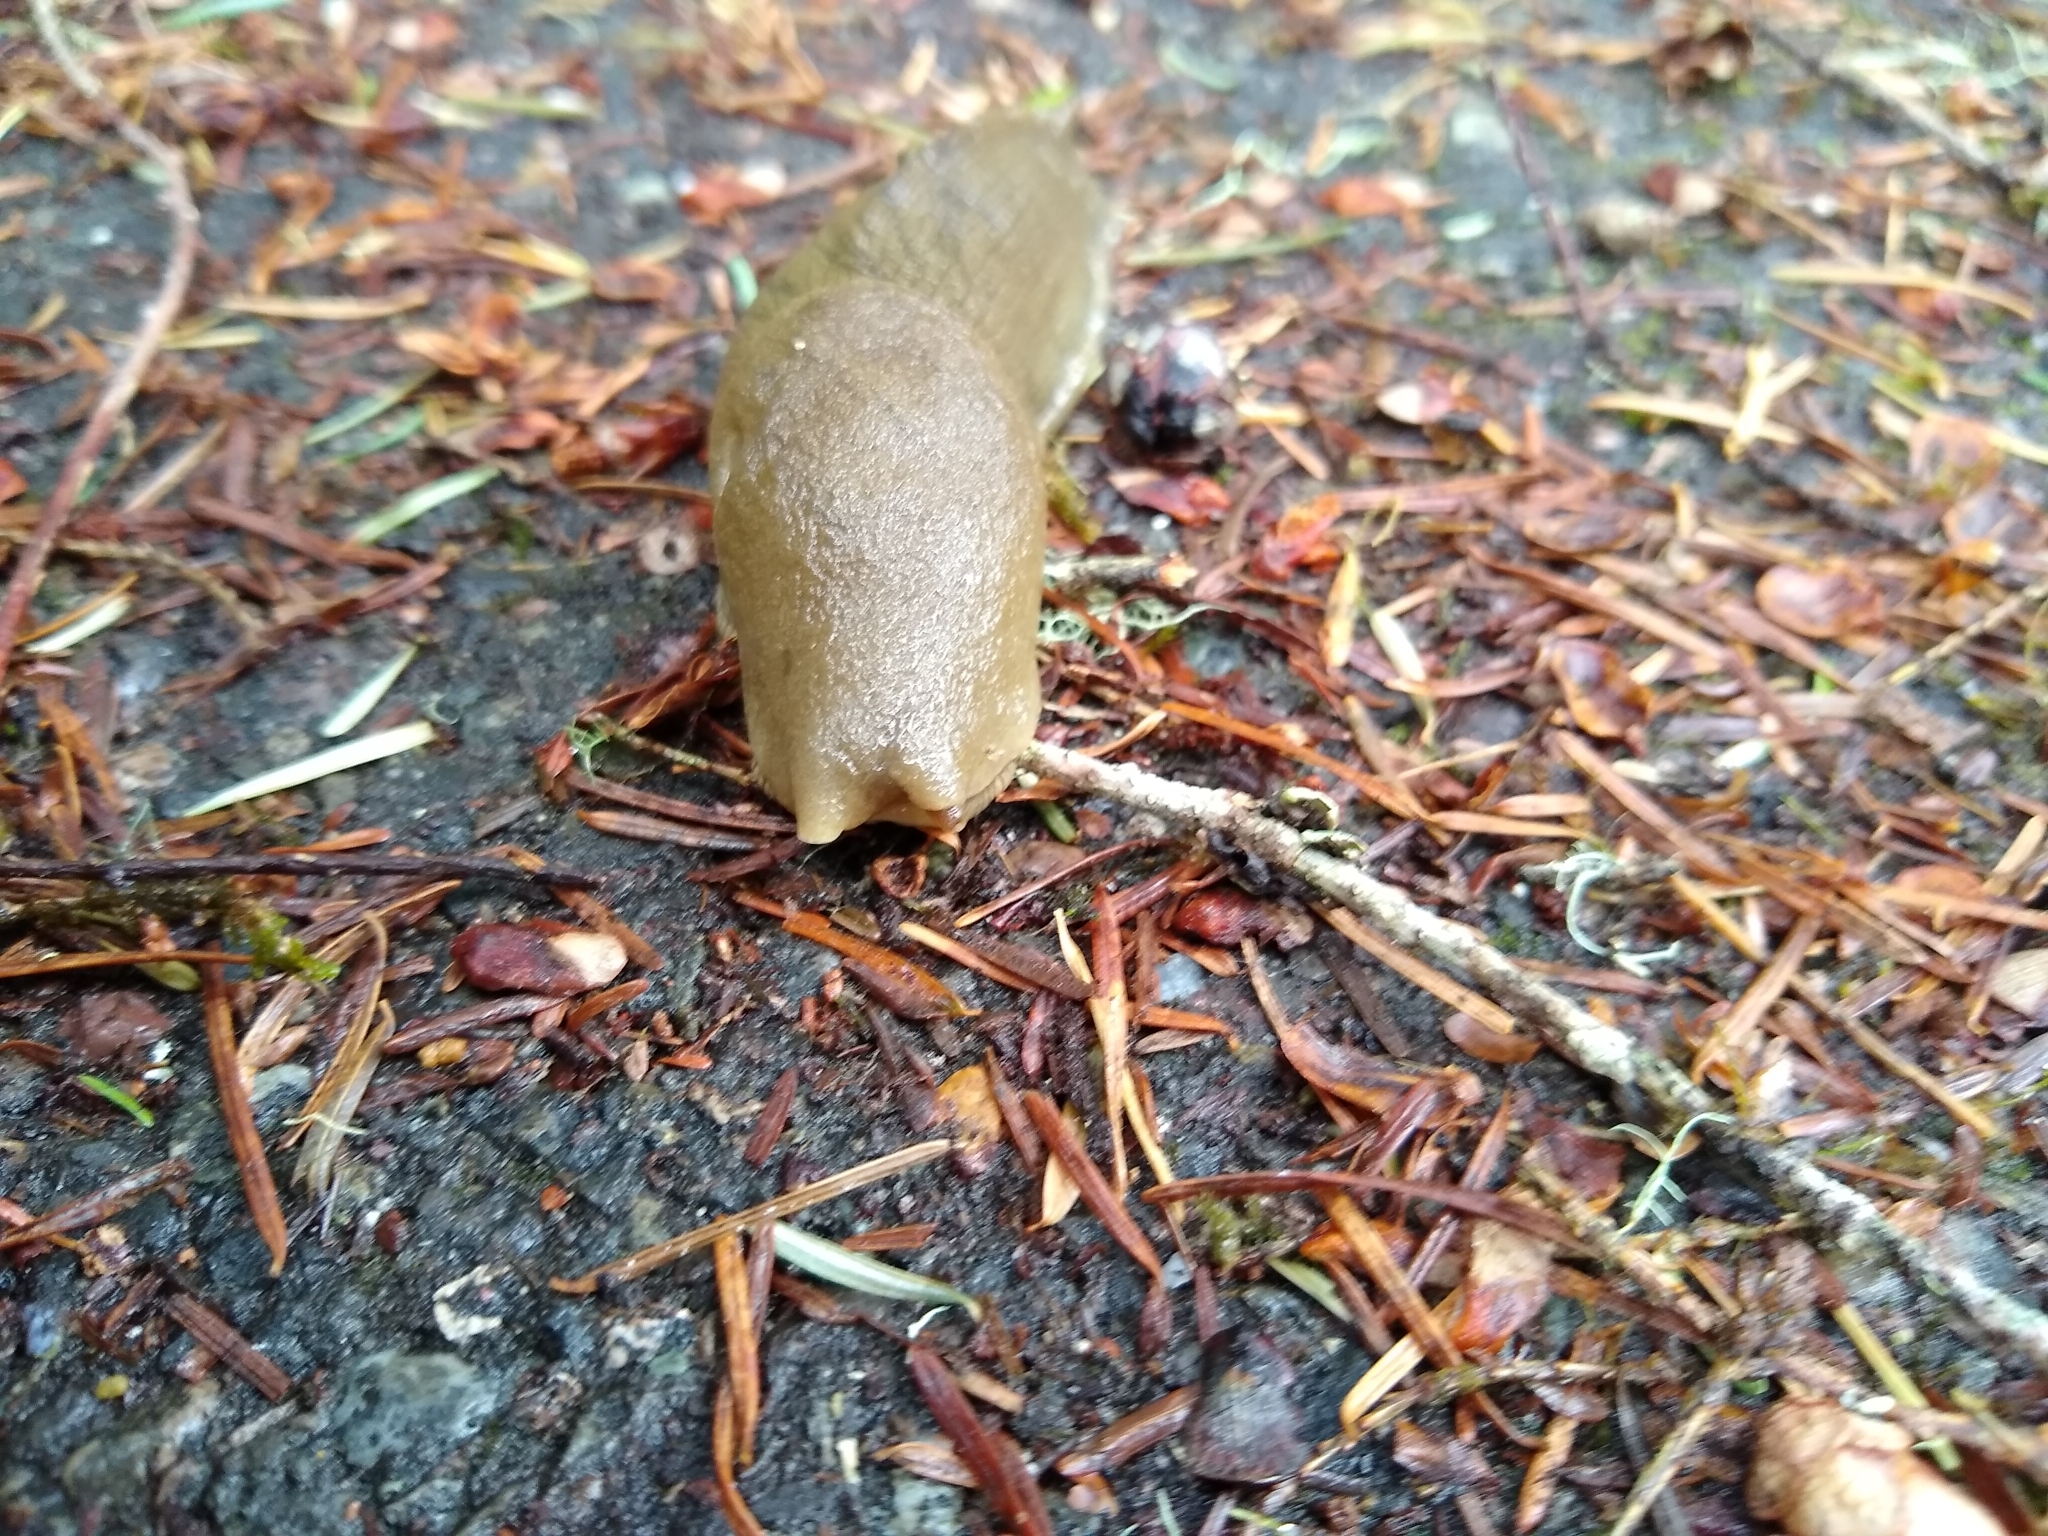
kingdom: Animalia
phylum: Mollusca
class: Gastropoda
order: Stylommatophora
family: Ariolimacidae
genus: Ariolimax
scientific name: Ariolimax columbianus
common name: Pacific banana slug
